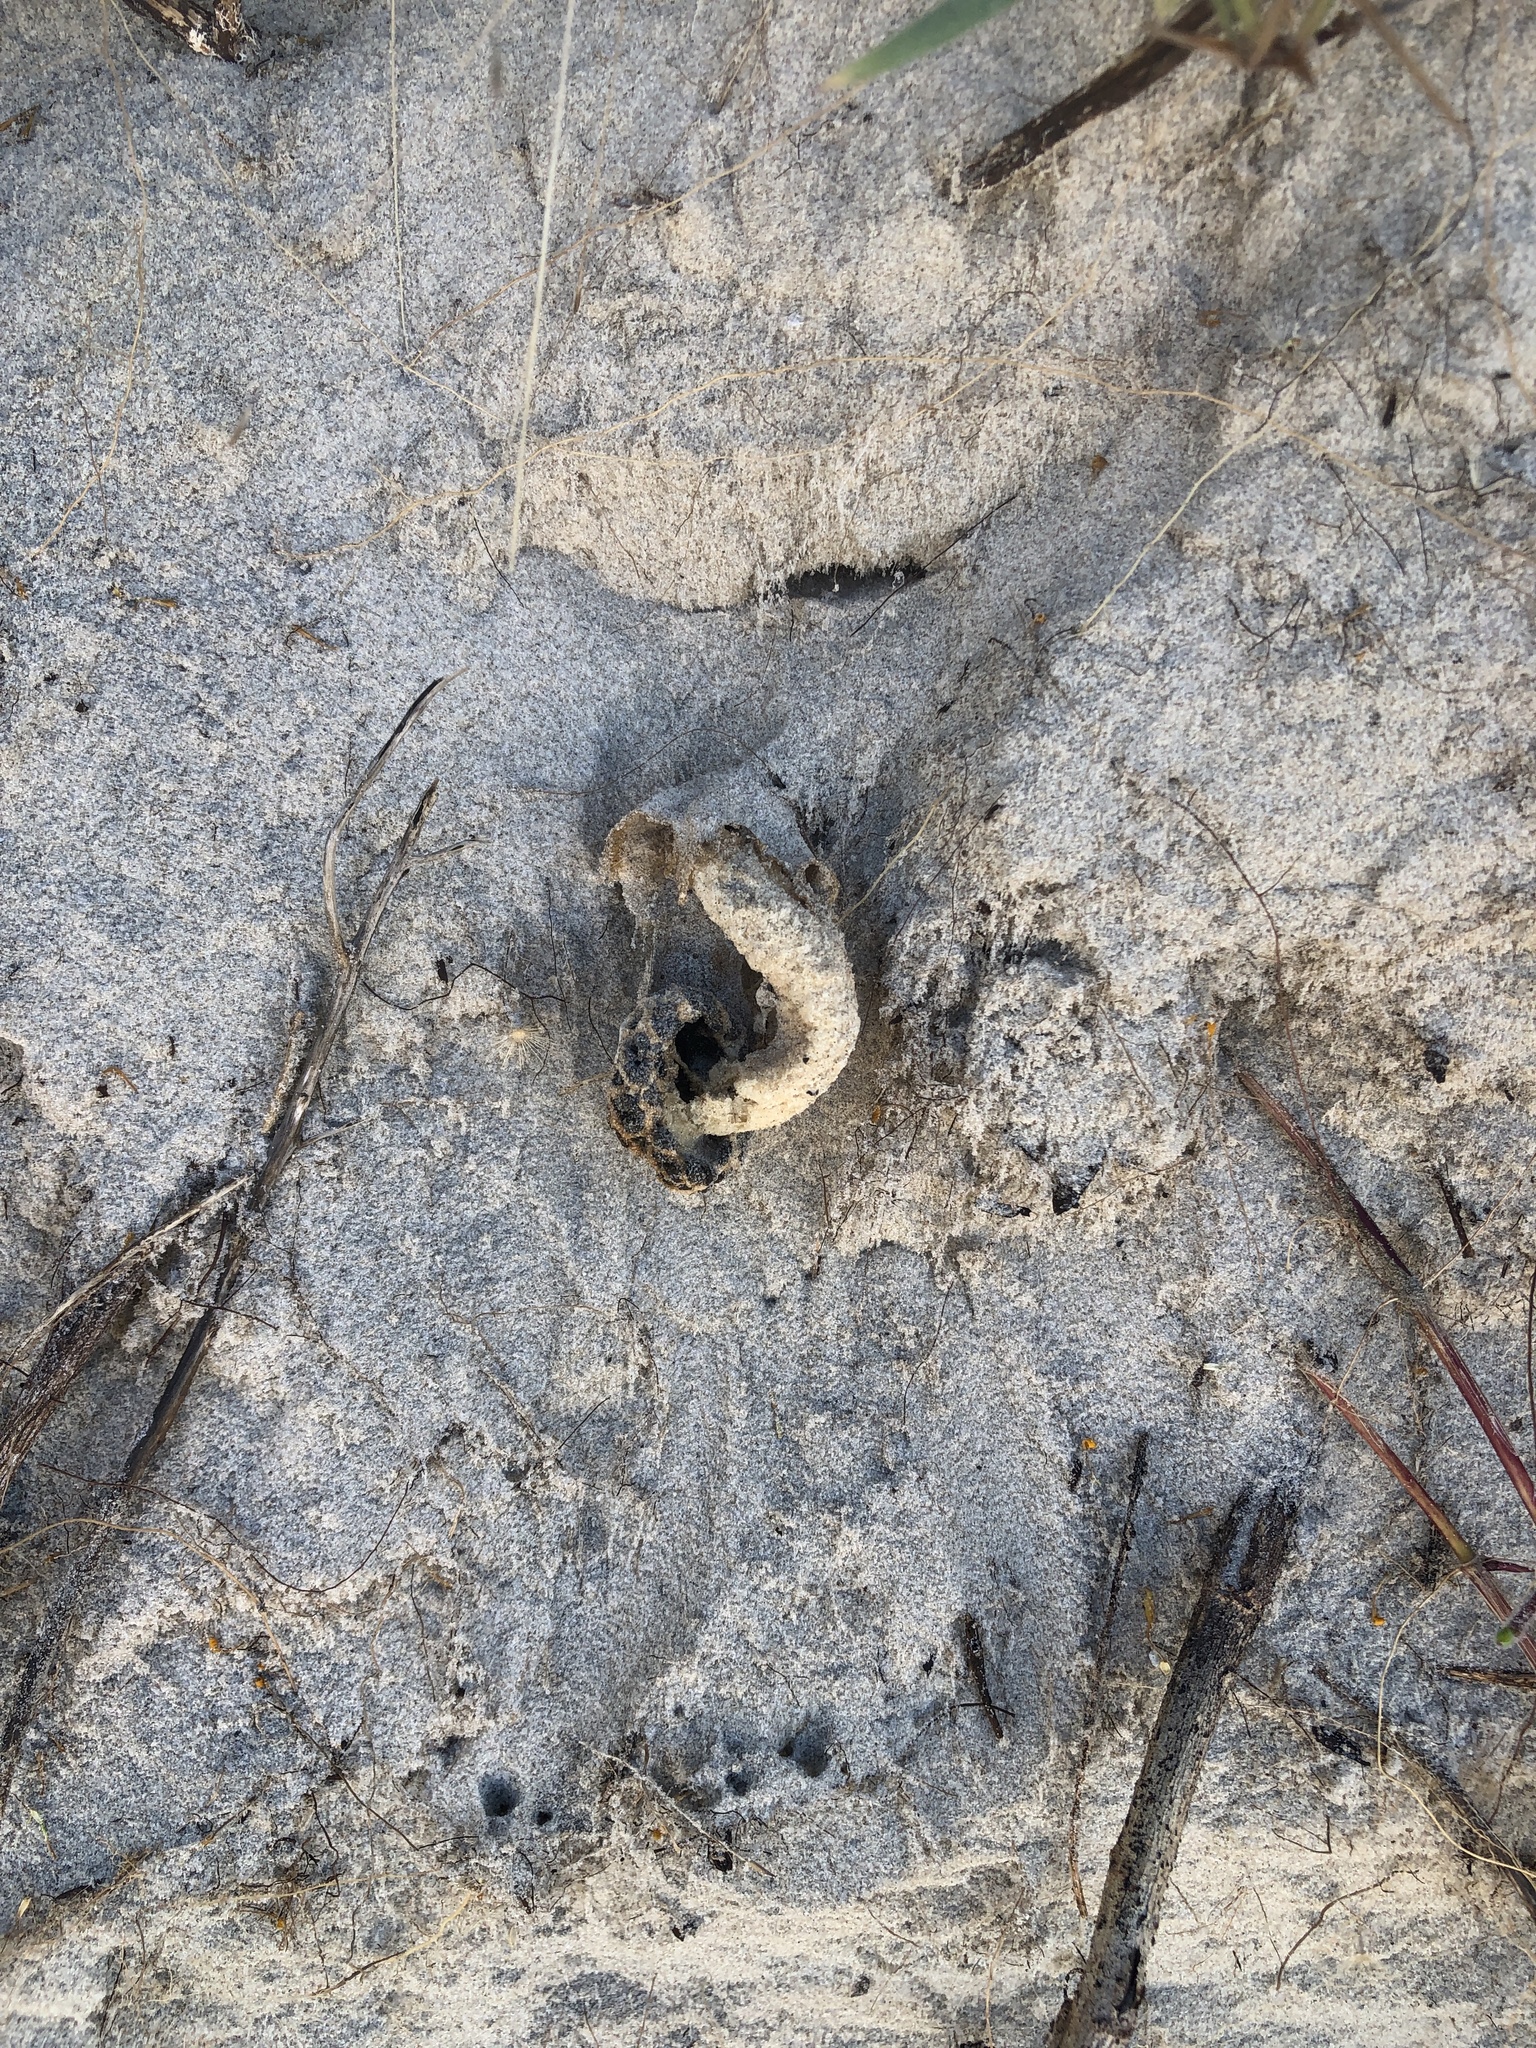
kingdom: Fungi
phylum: Basidiomycota
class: Agaricomycetes
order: Phallales
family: Phallaceae
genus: Lysurus
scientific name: Lysurus periphragmoides
